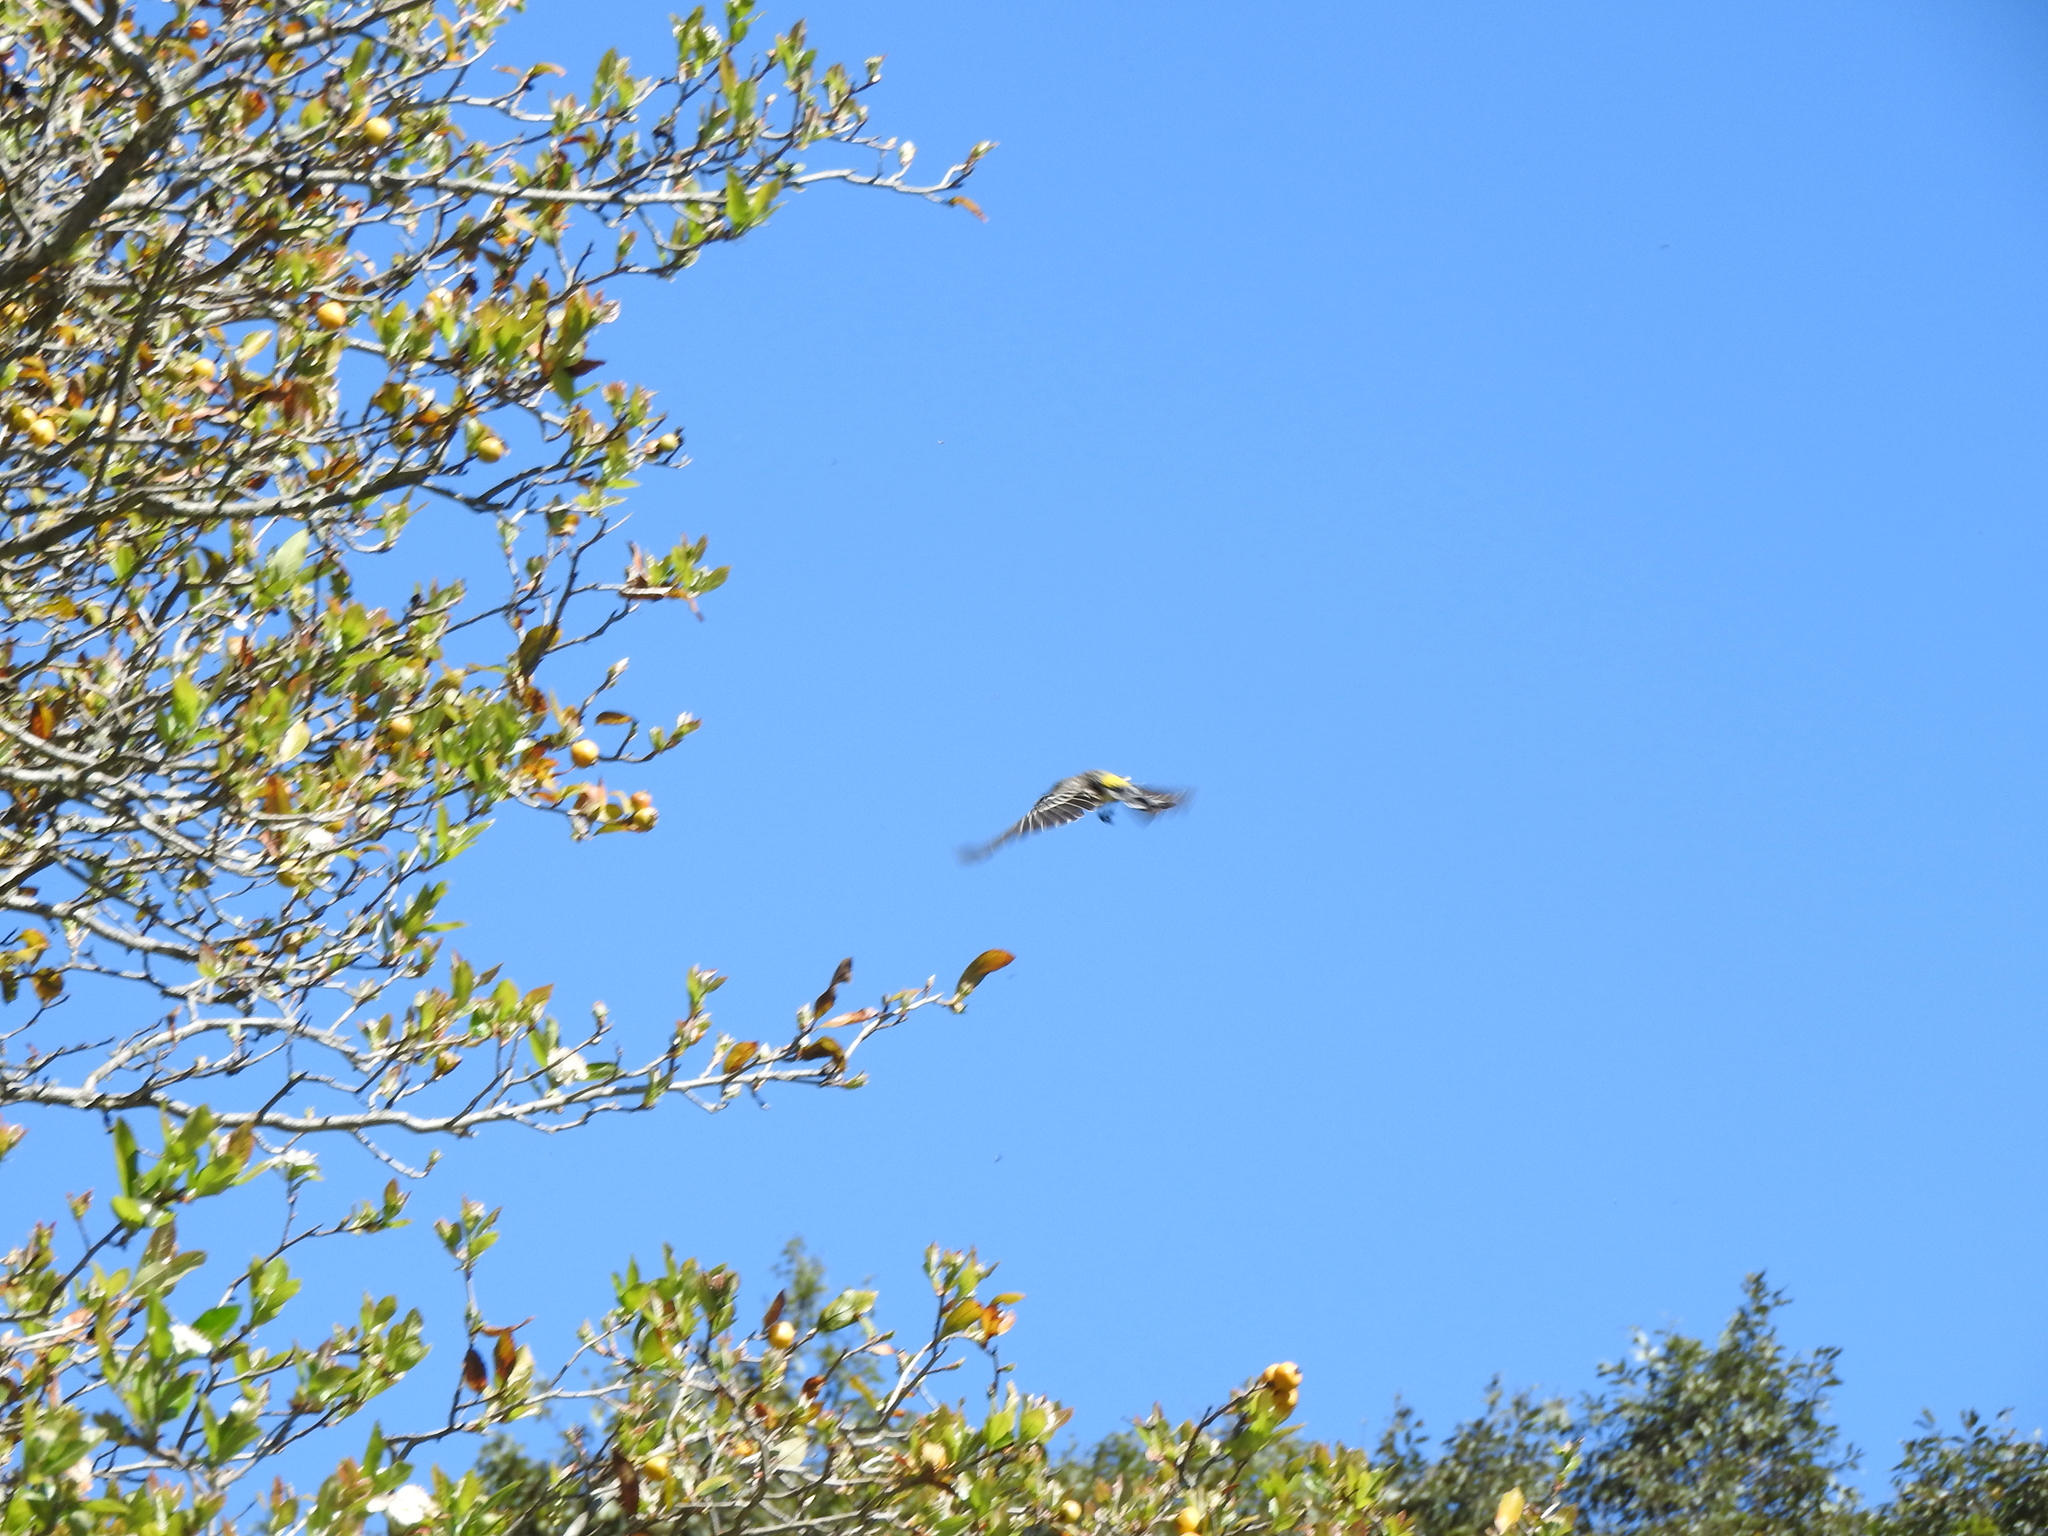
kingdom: Animalia
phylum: Chordata
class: Aves
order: Passeriformes
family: Parulidae
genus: Setophaga
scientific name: Setophaga coronata
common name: Myrtle warbler
